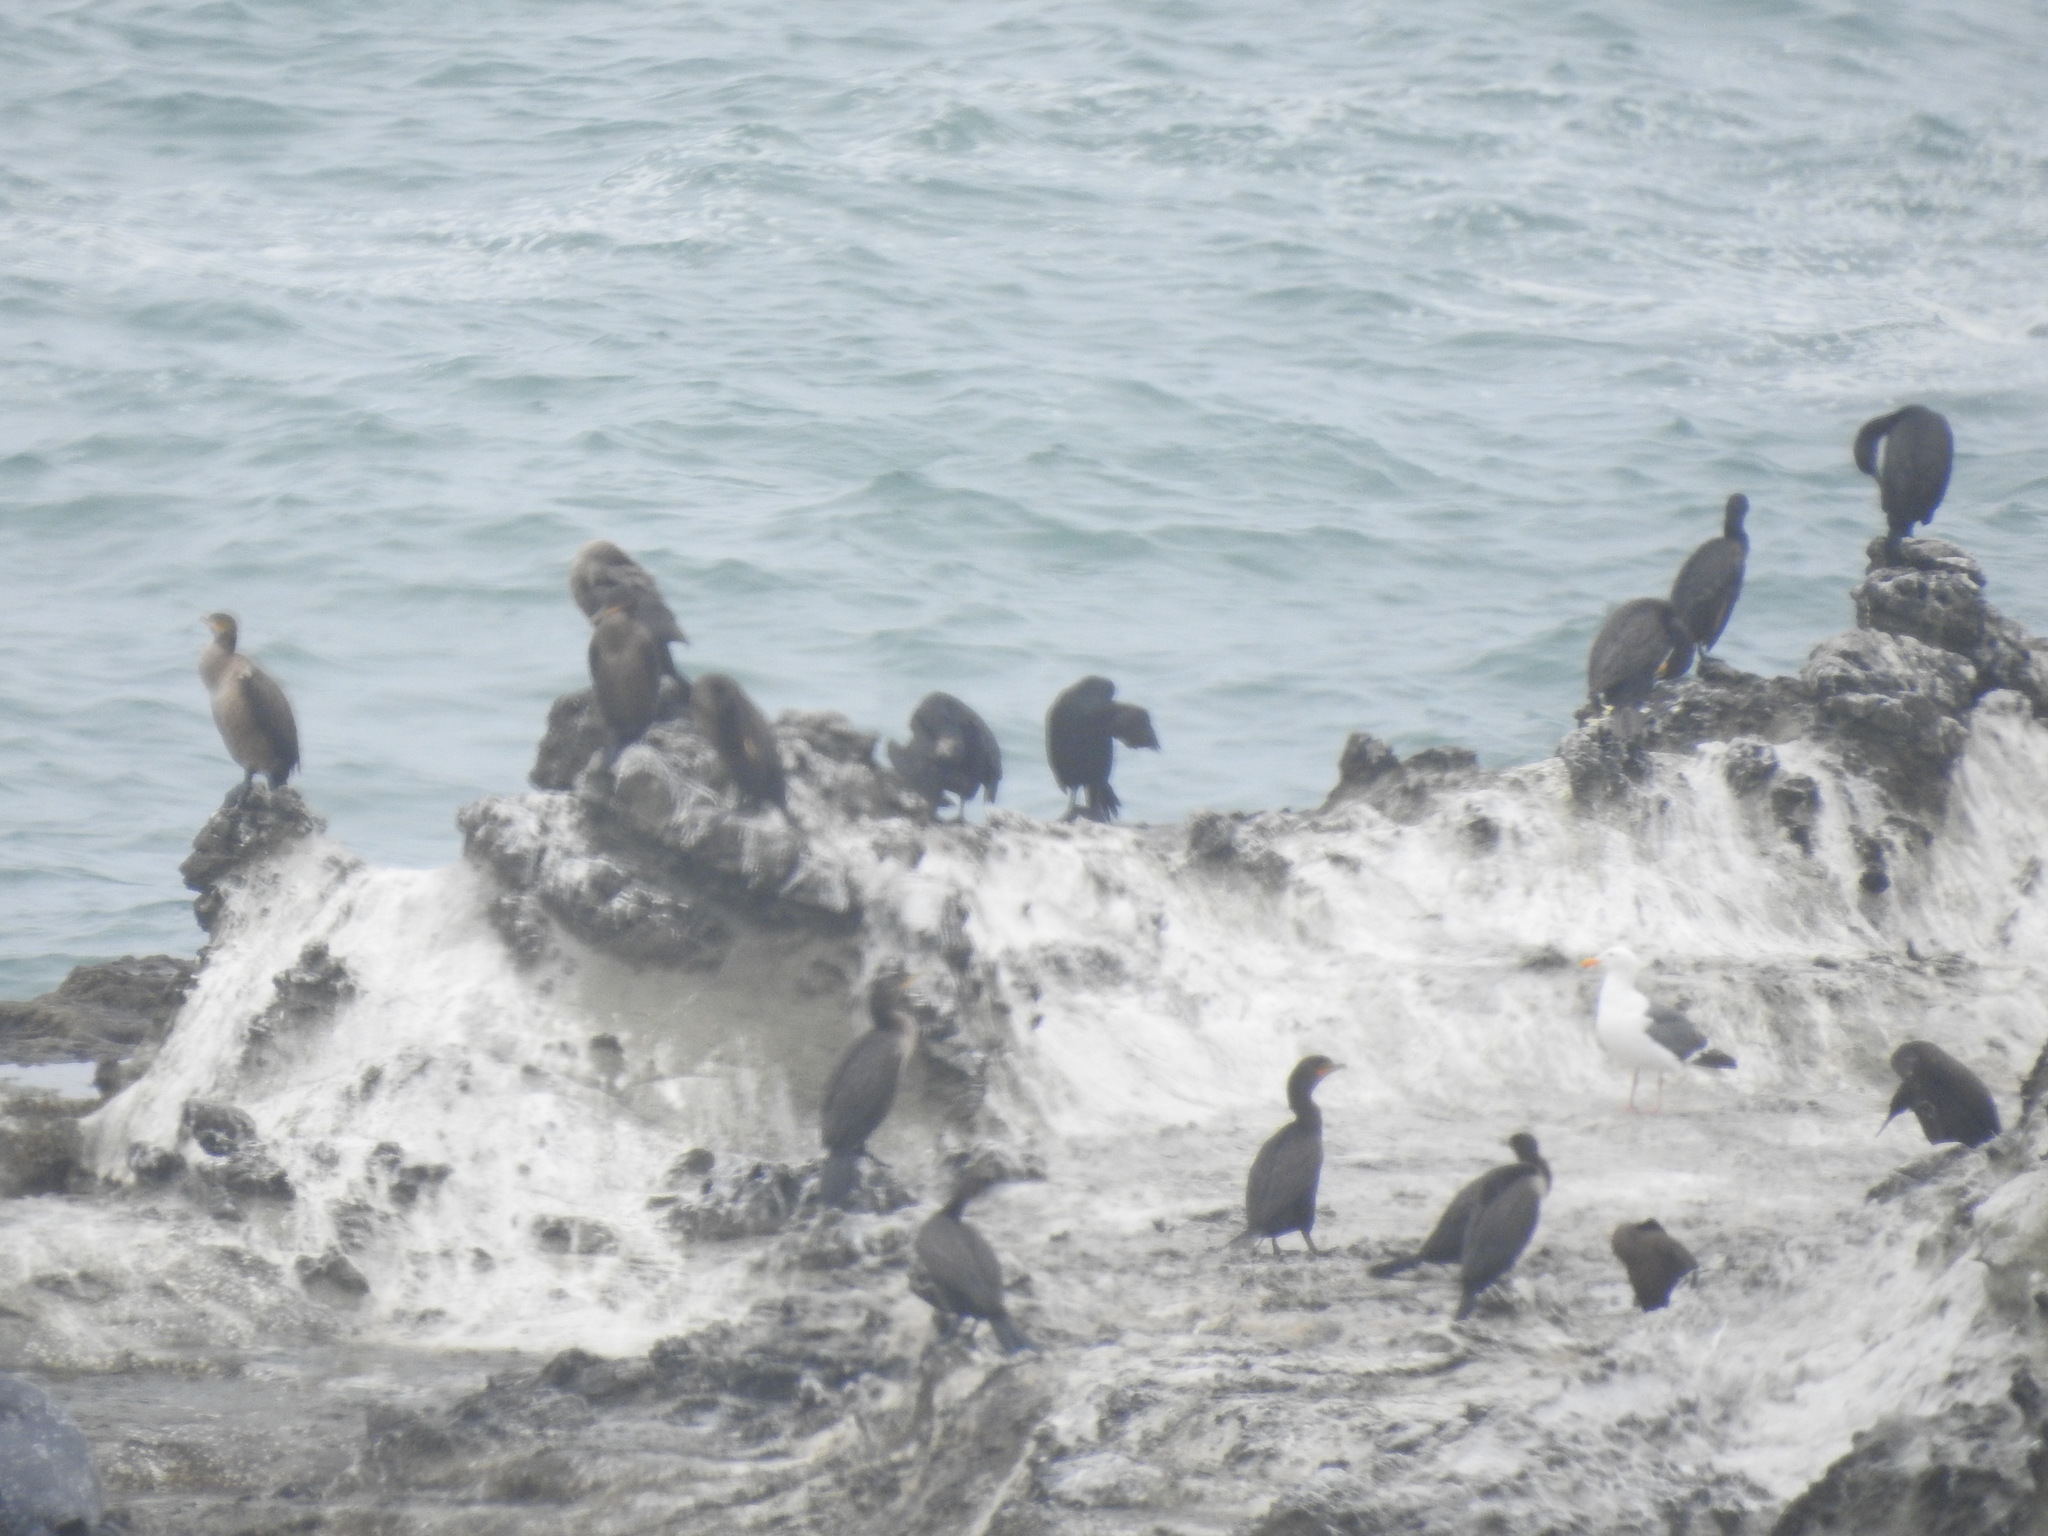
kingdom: Animalia
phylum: Chordata
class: Aves
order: Suliformes
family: Phalacrocoracidae
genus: Urile
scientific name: Urile penicillatus
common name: Brandt's cormorant
